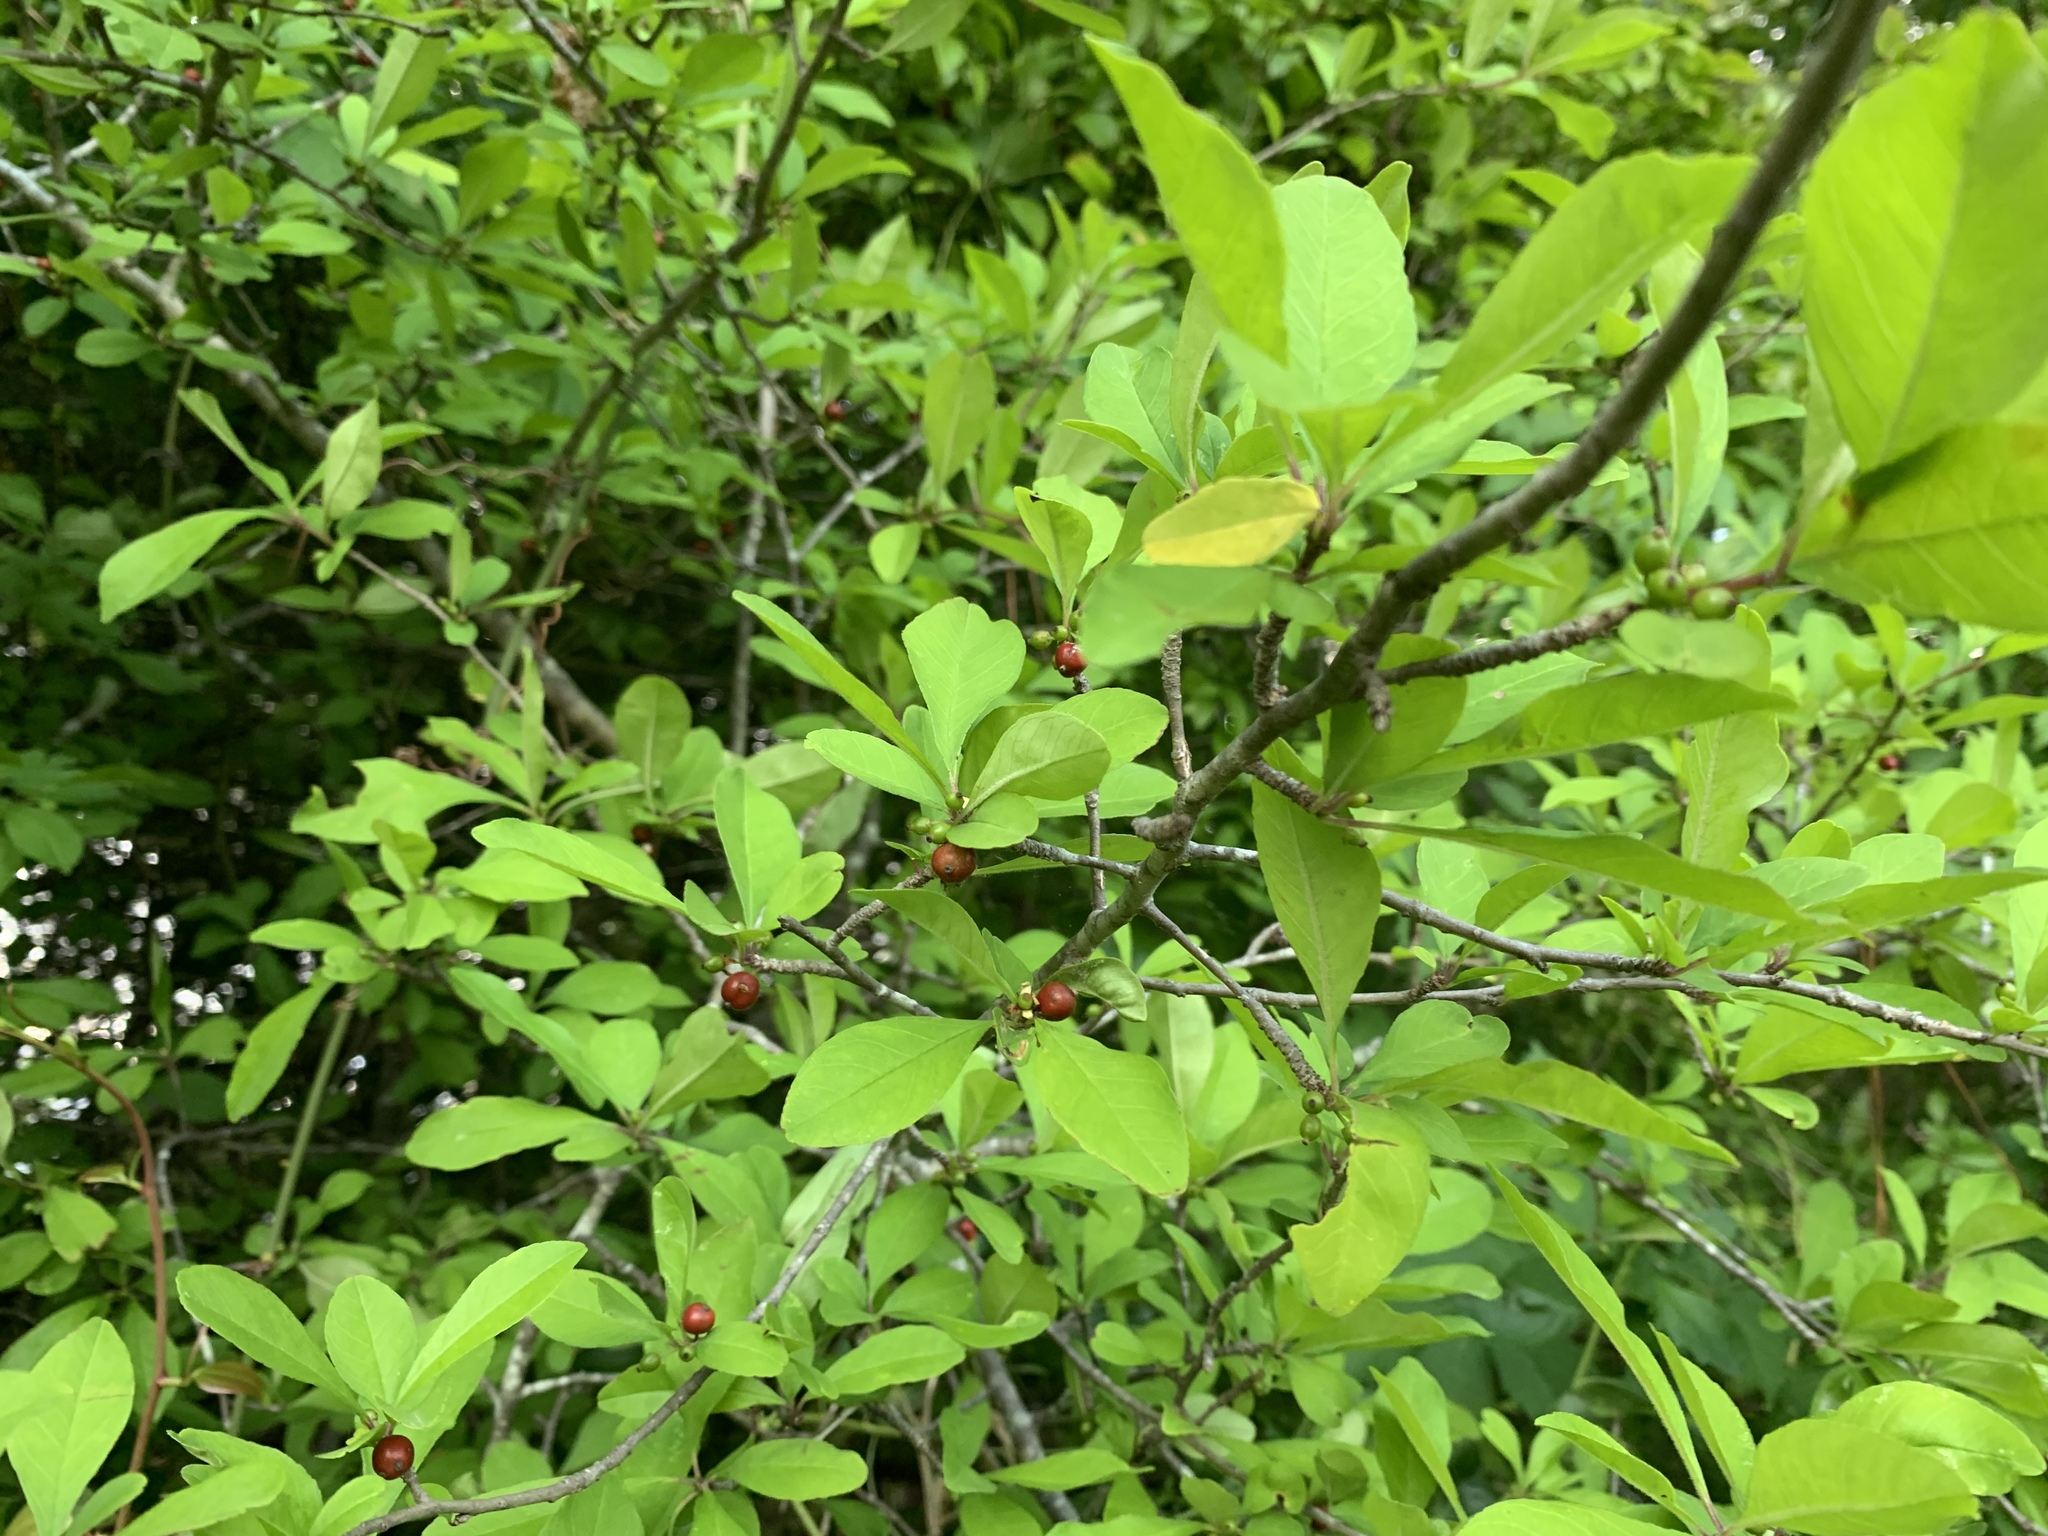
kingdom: Plantae
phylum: Tracheophyta
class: Magnoliopsida
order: Aquifoliales
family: Aquifoliaceae
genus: Ilex
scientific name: Ilex decidua
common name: Possum-haw
